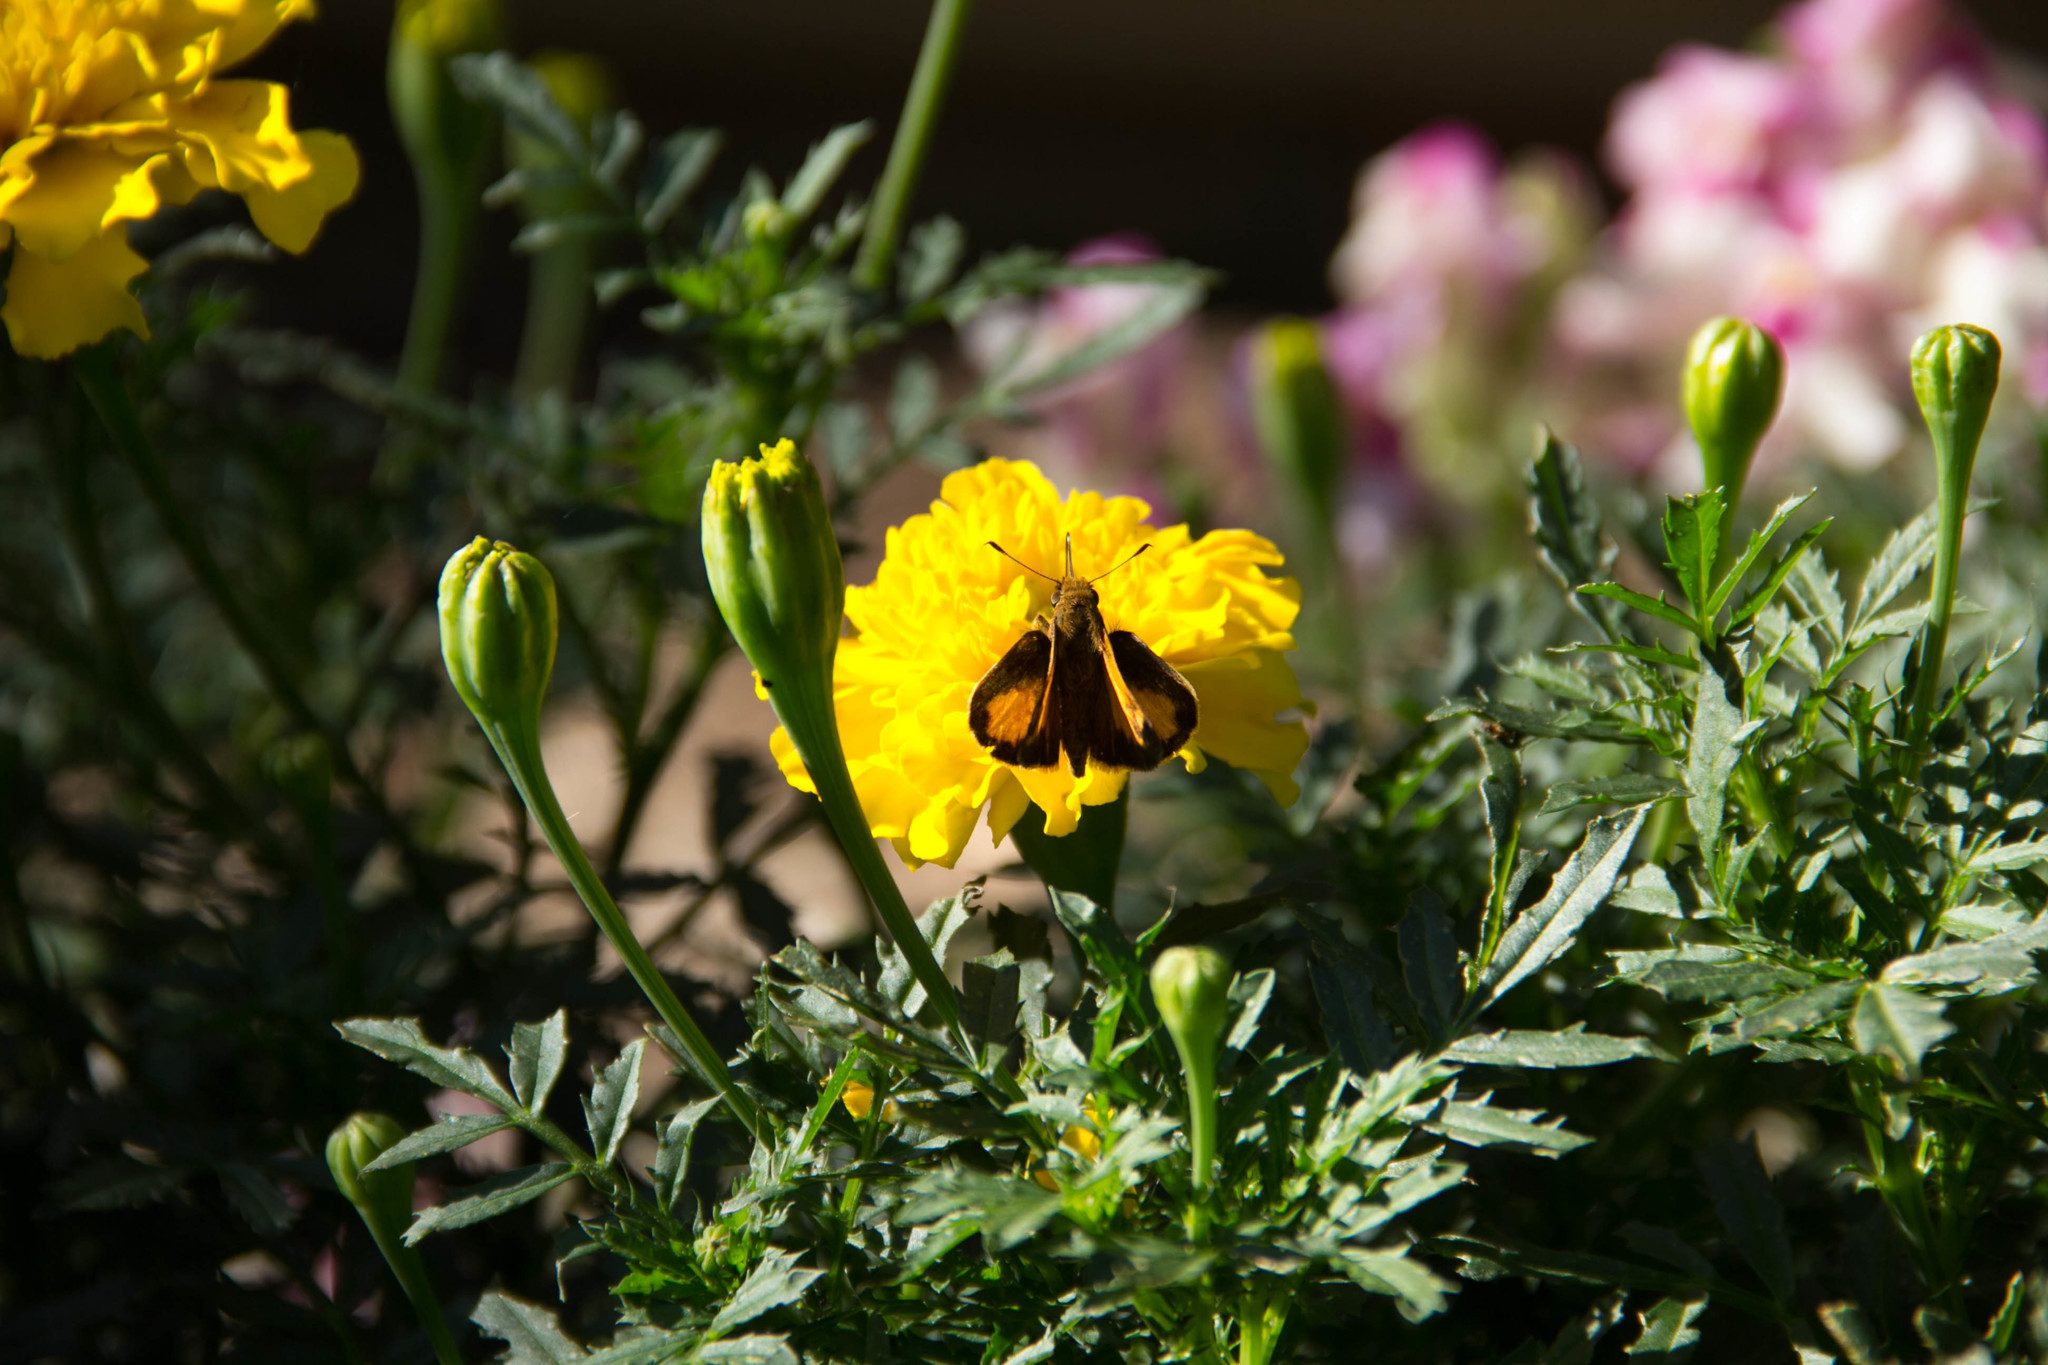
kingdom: Animalia
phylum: Arthropoda
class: Insecta
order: Lepidoptera
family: Hesperiidae
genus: Lon
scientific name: Lon zabulon
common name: Zabulon skipper
